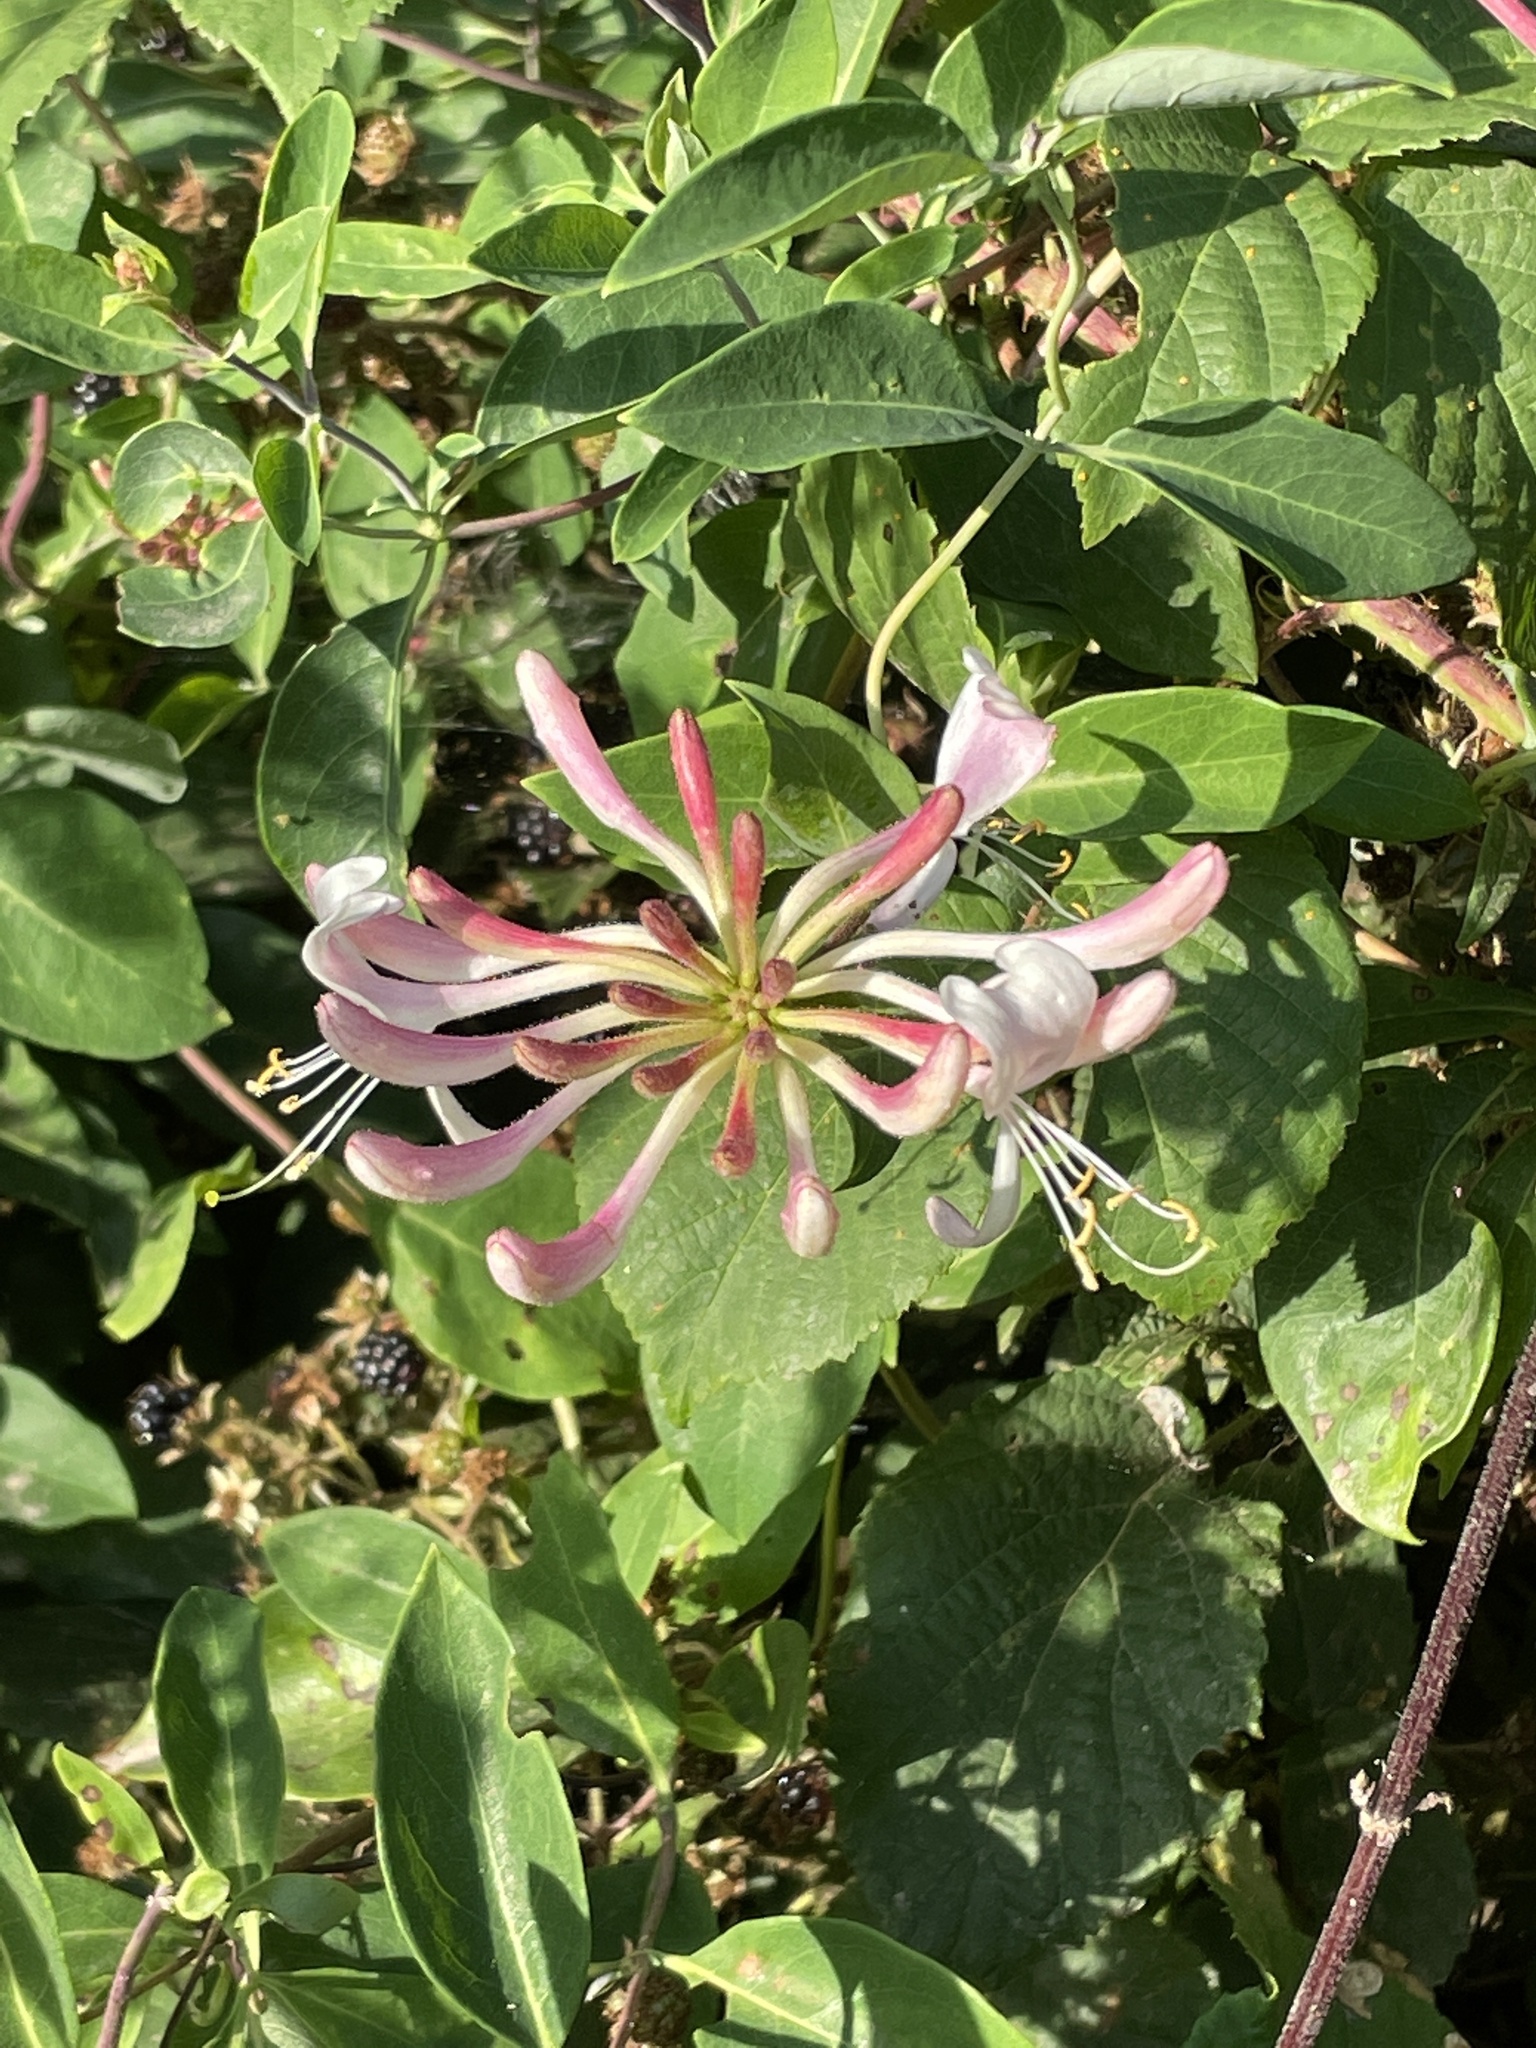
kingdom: Plantae
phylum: Tracheophyta
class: Magnoliopsida
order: Dipsacales
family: Caprifoliaceae
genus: Lonicera
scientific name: Lonicera periclymenum
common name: European honeysuckle
